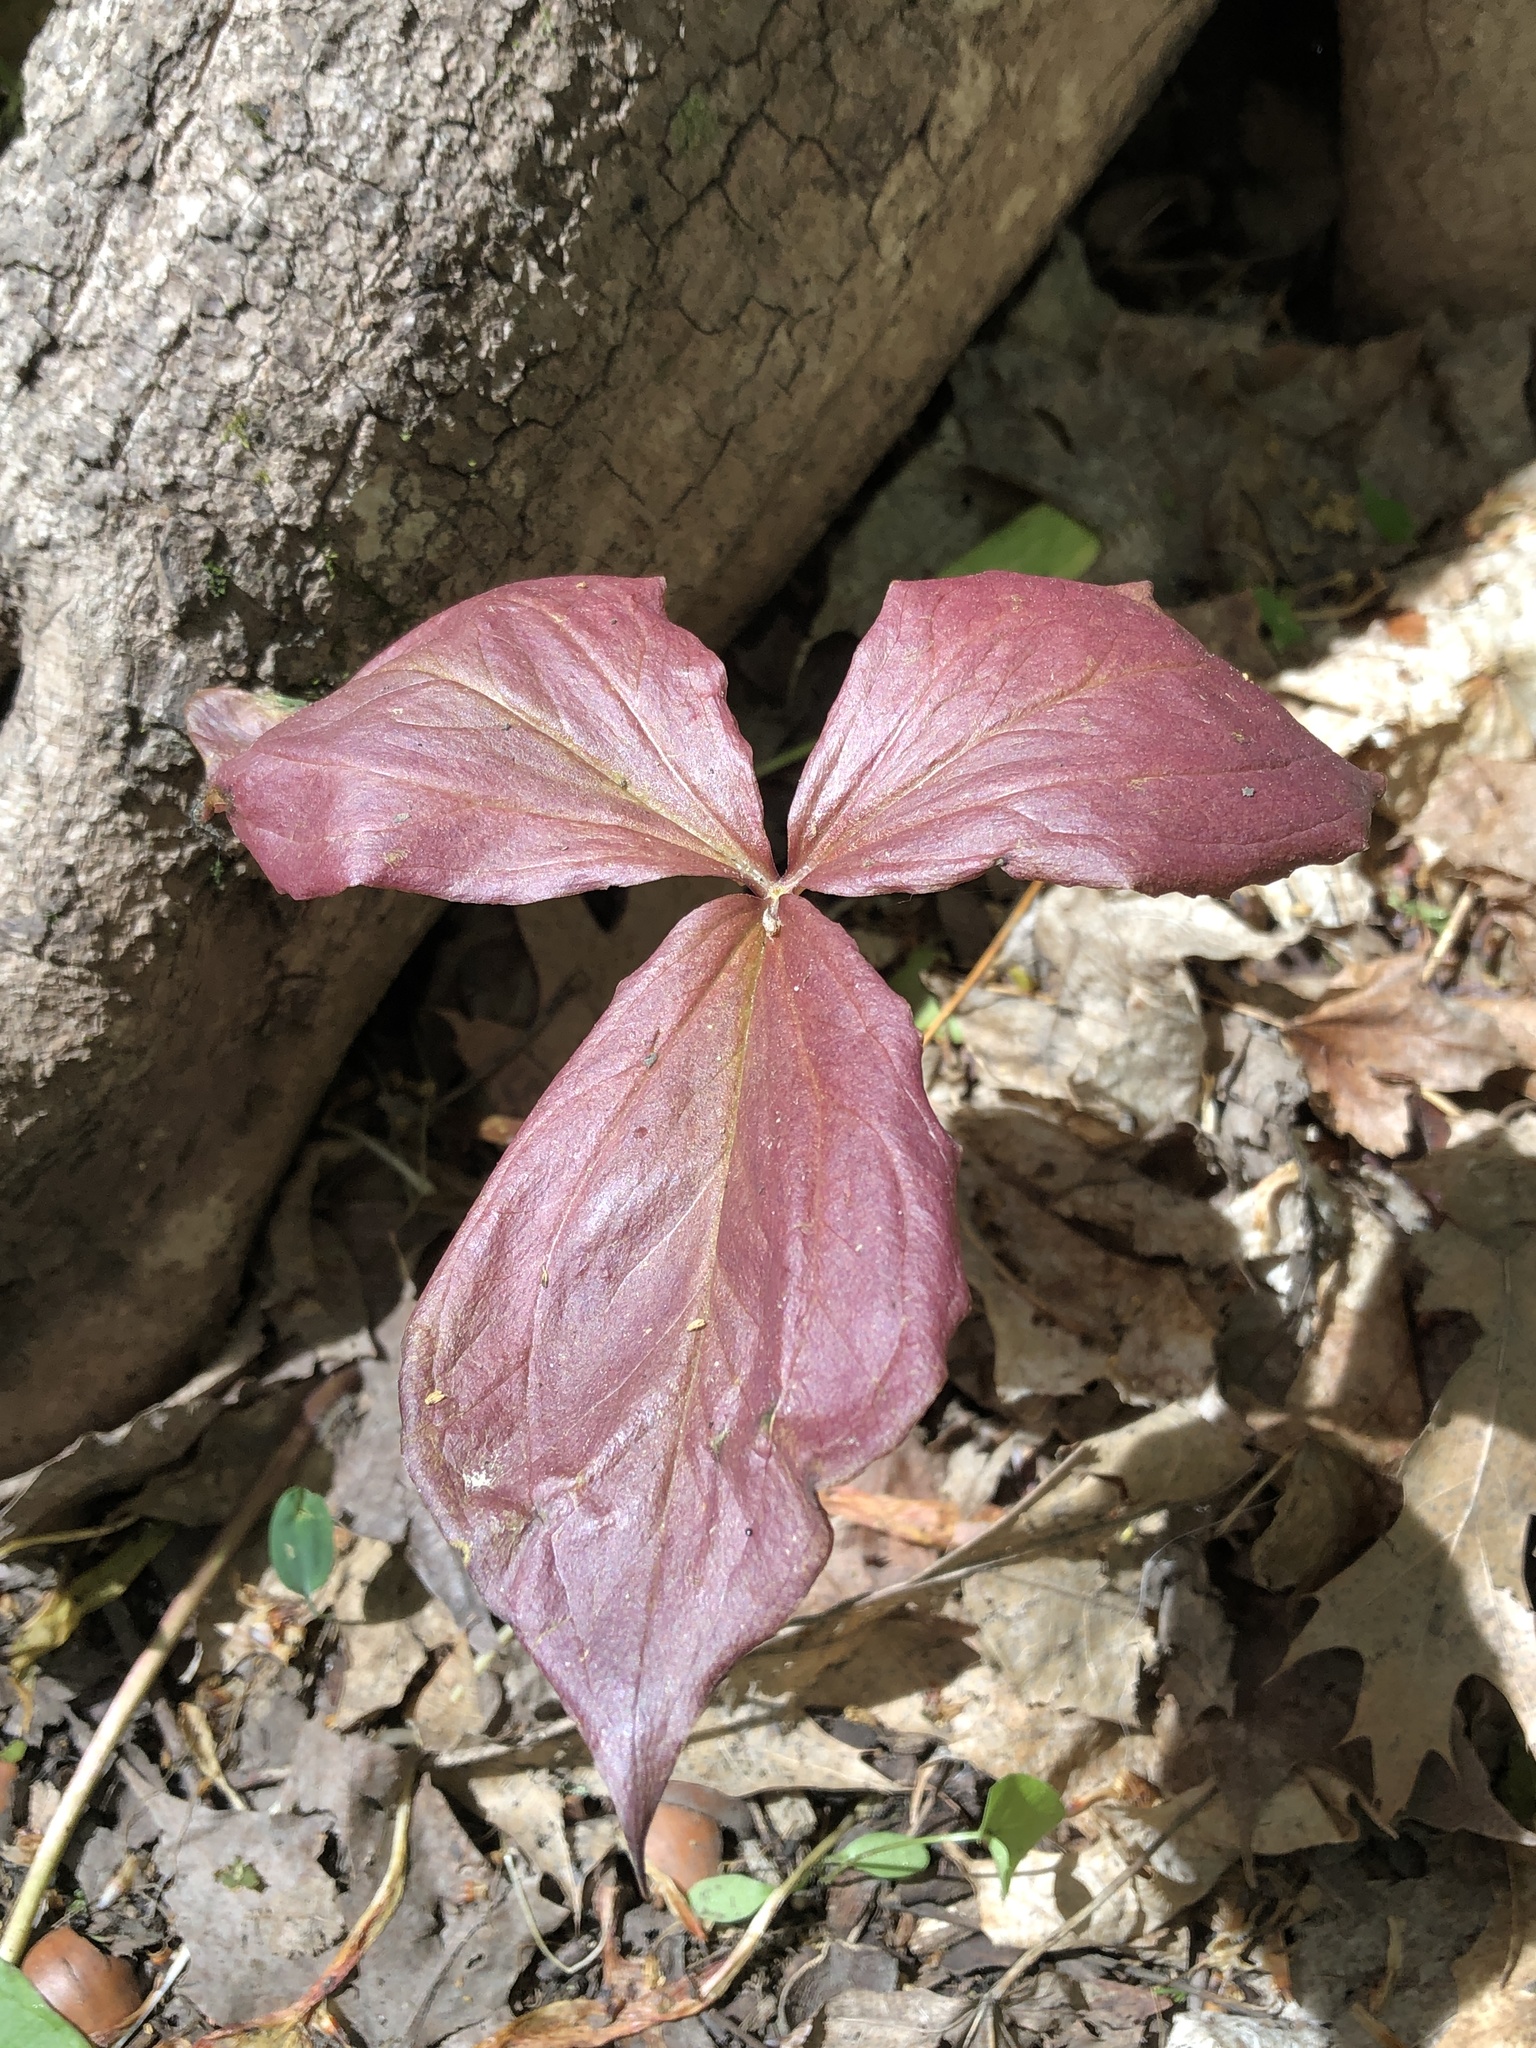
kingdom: Plantae
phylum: Tracheophyta
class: Liliopsida
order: Liliales
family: Melanthiaceae
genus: Trillium
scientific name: Trillium grandiflorum
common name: Great white trillium
